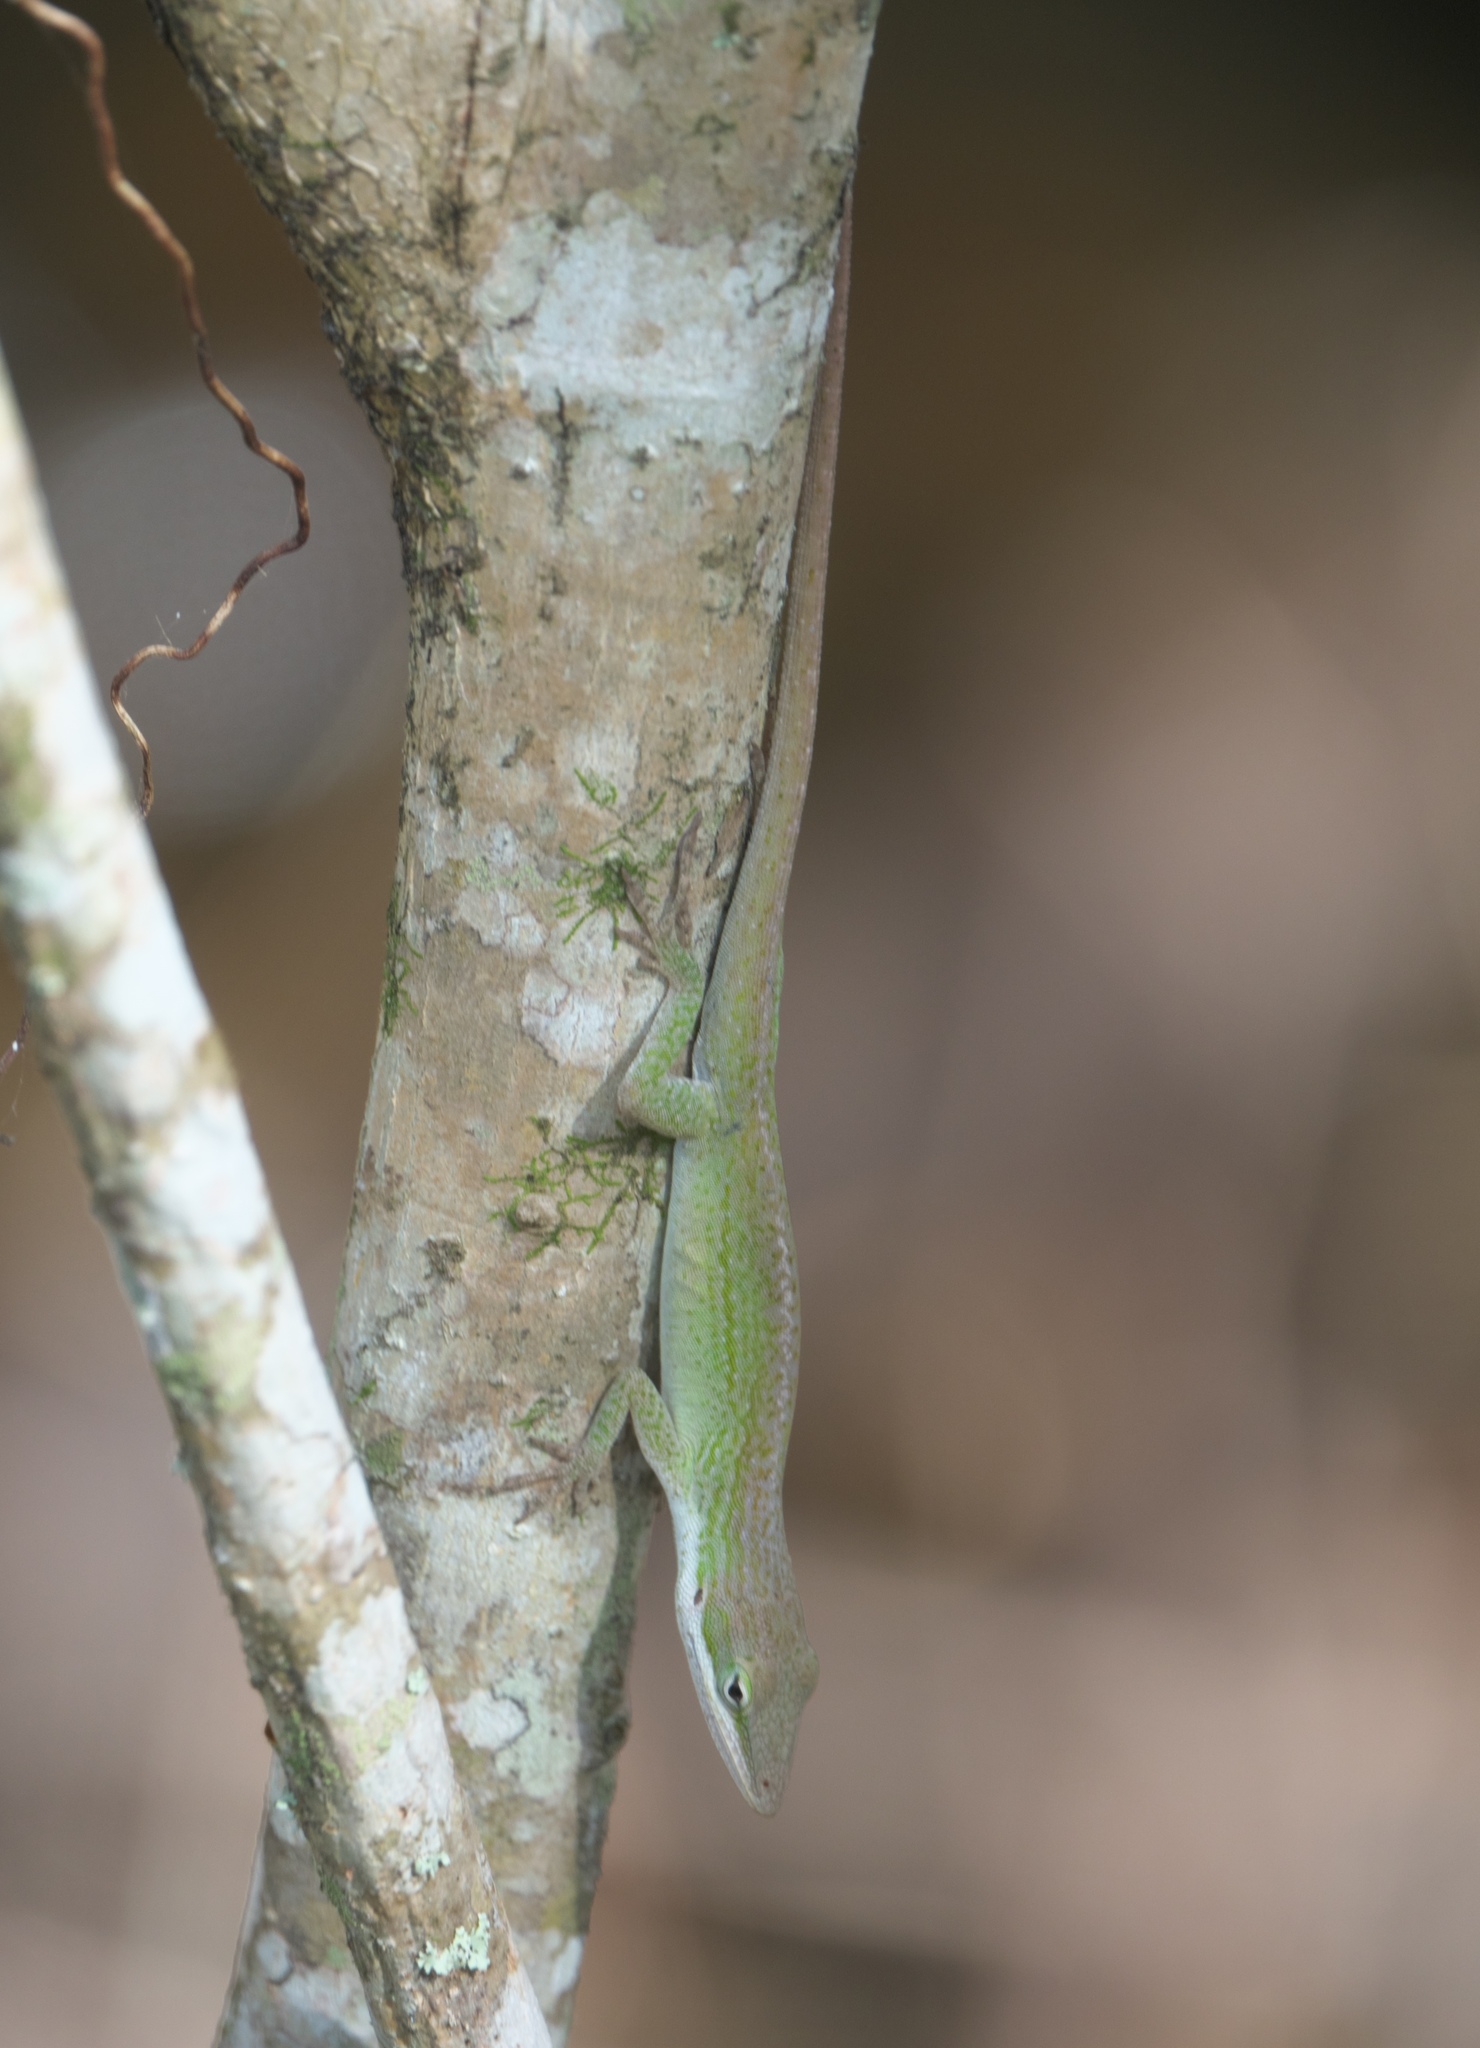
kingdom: Animalia
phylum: Chordata
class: Squamata
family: Dactyloidae
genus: Anolis
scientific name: Anolis carolinensis
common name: Green anole
